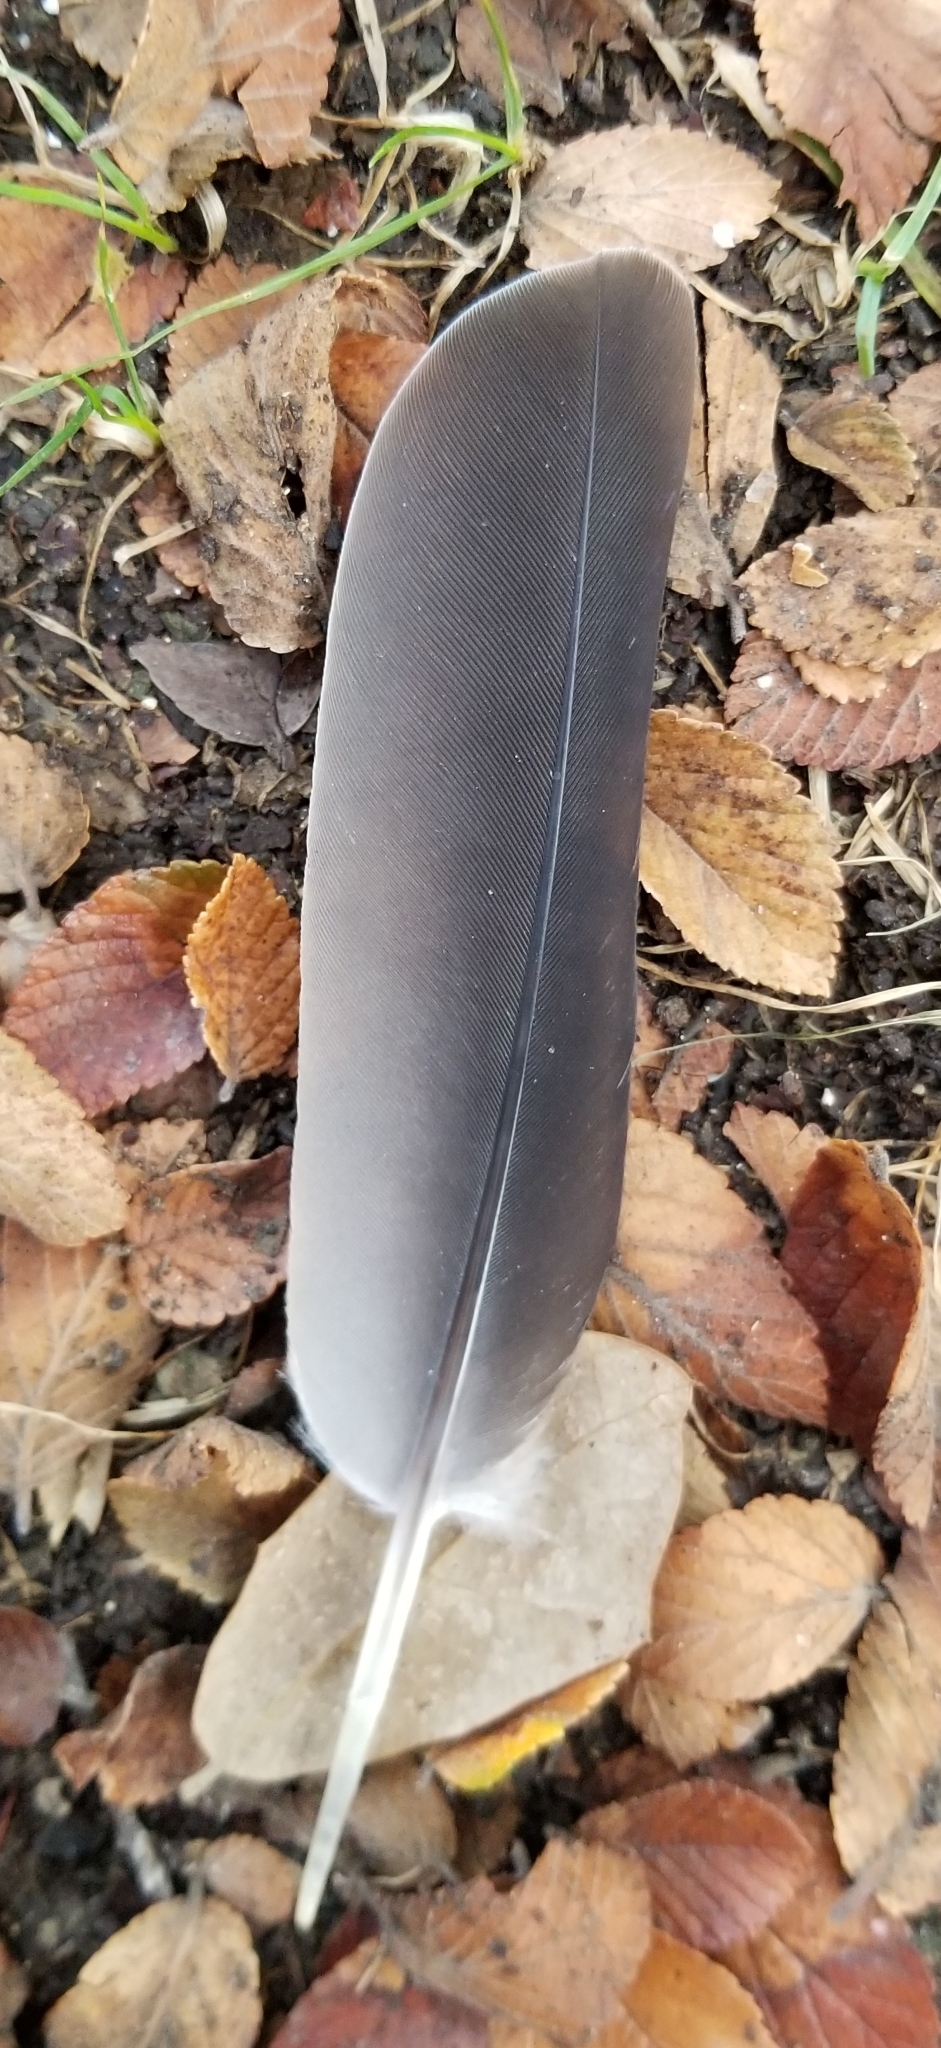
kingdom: Animalia
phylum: Chordata
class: Aves
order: Columbiformes
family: Columbidae
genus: Zenaida
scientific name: Zenaida asiatica
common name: White-winged dove
